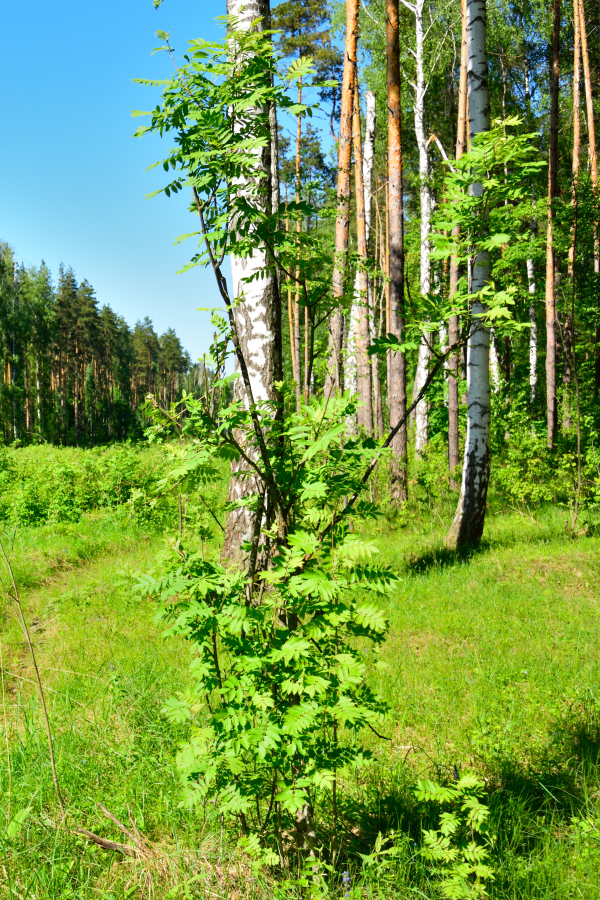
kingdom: Plantae
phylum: Tracheophyta
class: Magnoliopsida
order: Rosales
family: Rosaceae
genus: Sorbus
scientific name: Sorbus aucuparia
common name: Rowan
